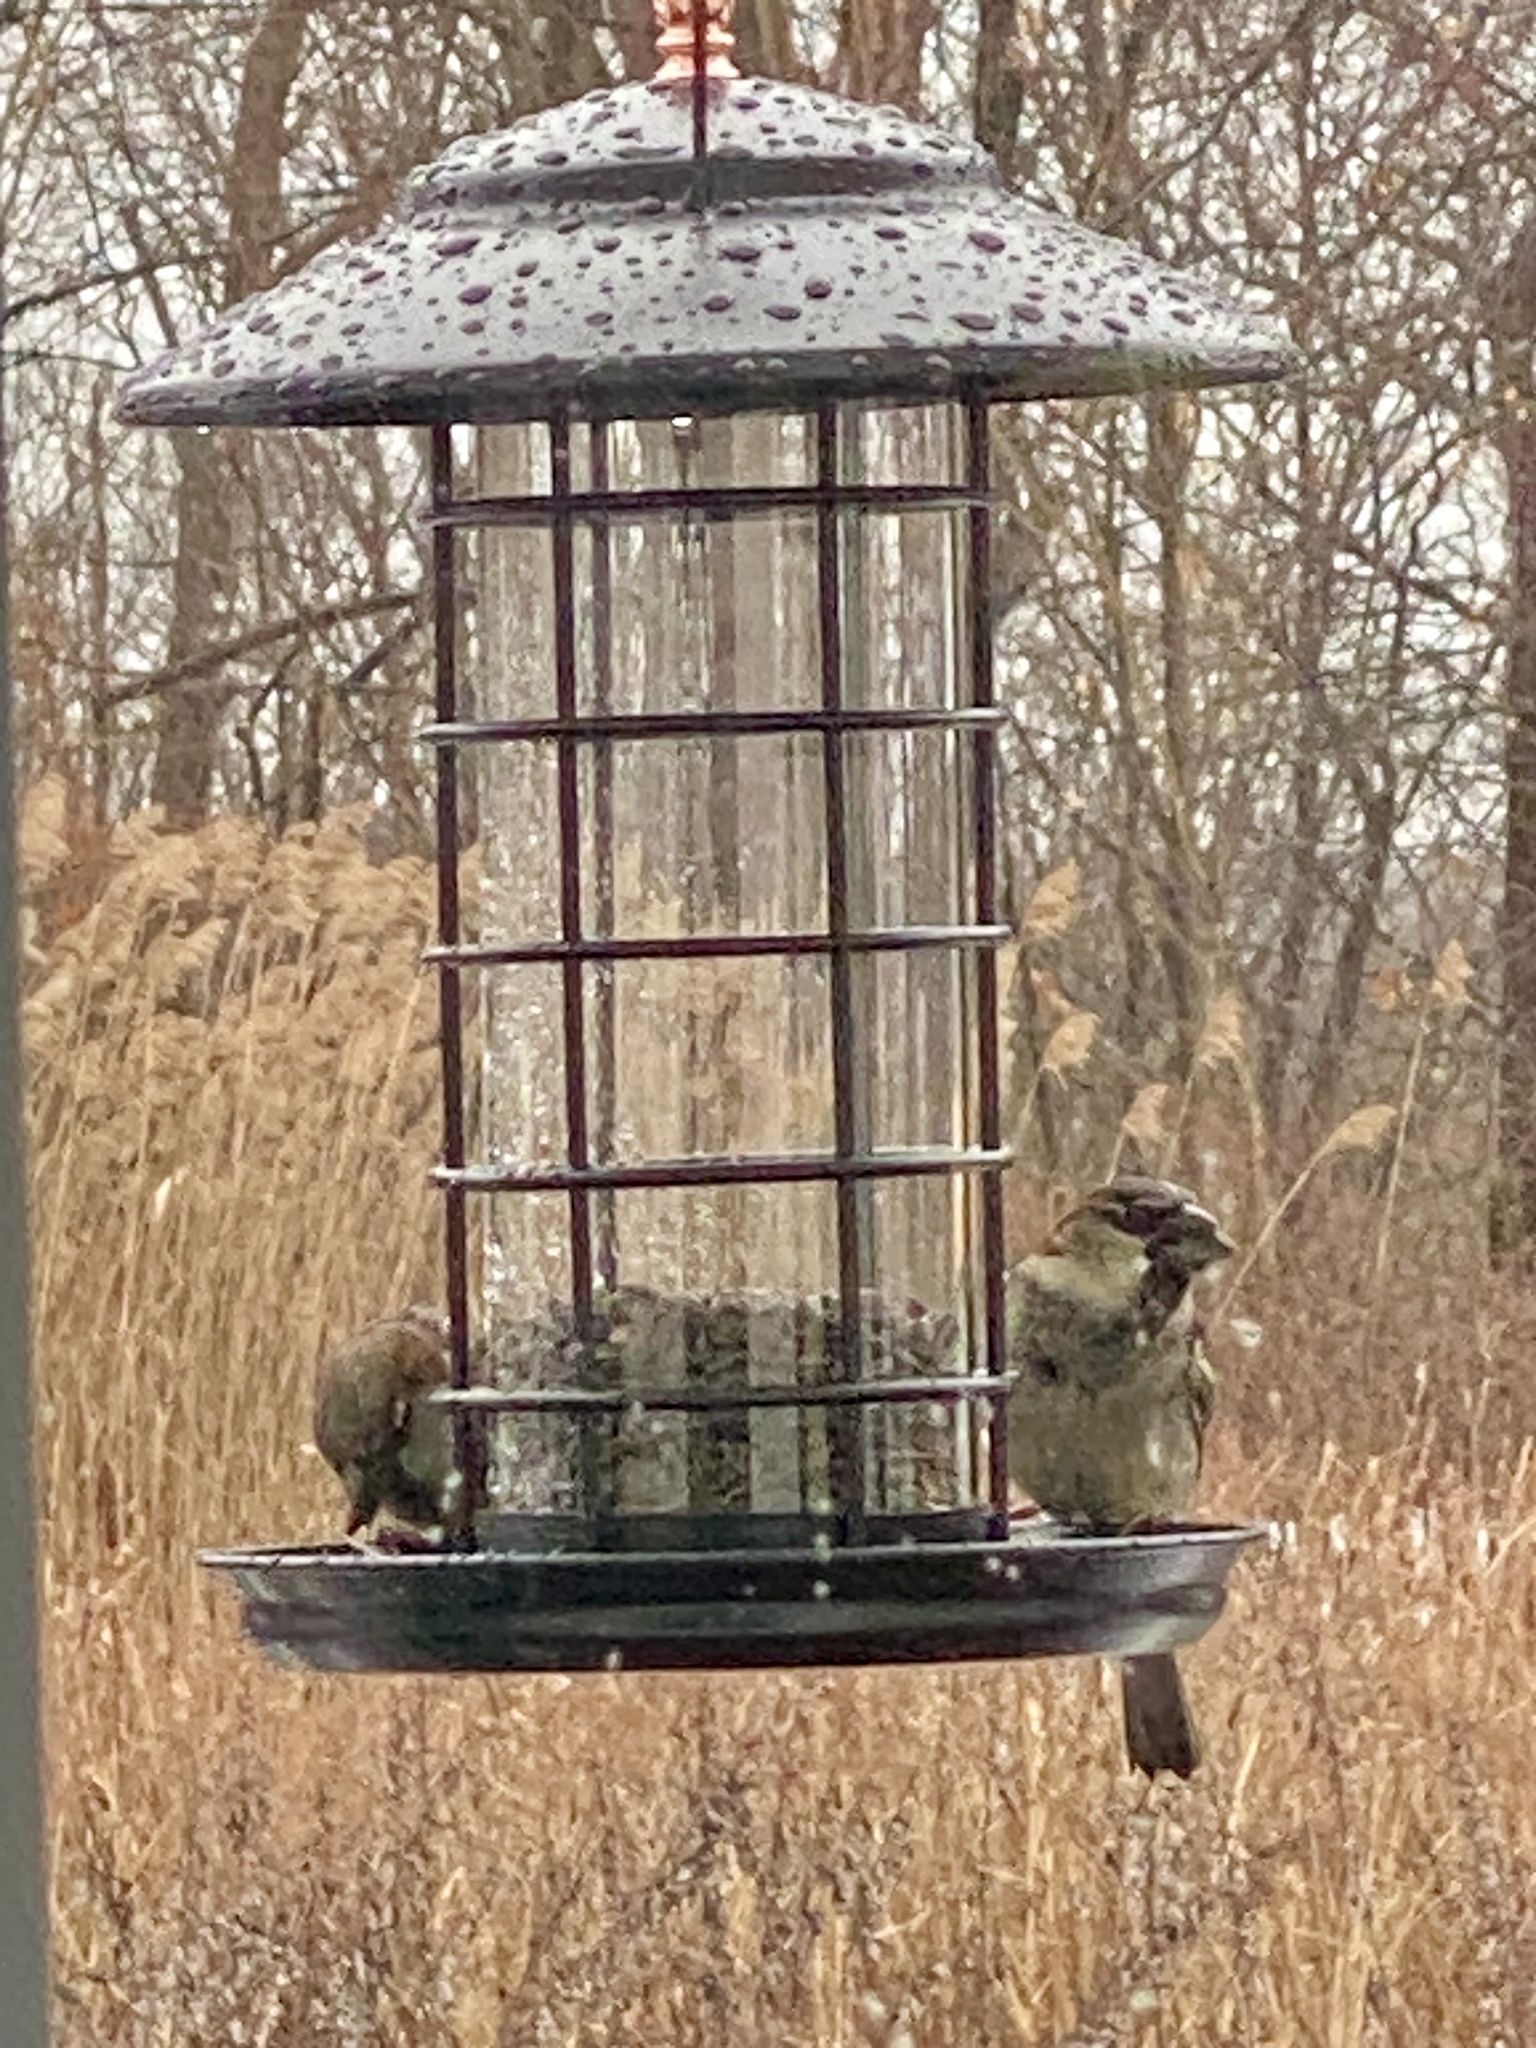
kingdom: Animalia
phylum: Chordata
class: Aves
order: Passeriformes
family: Passeridae
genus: Passer
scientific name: Passer domesticus
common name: House sparrow
